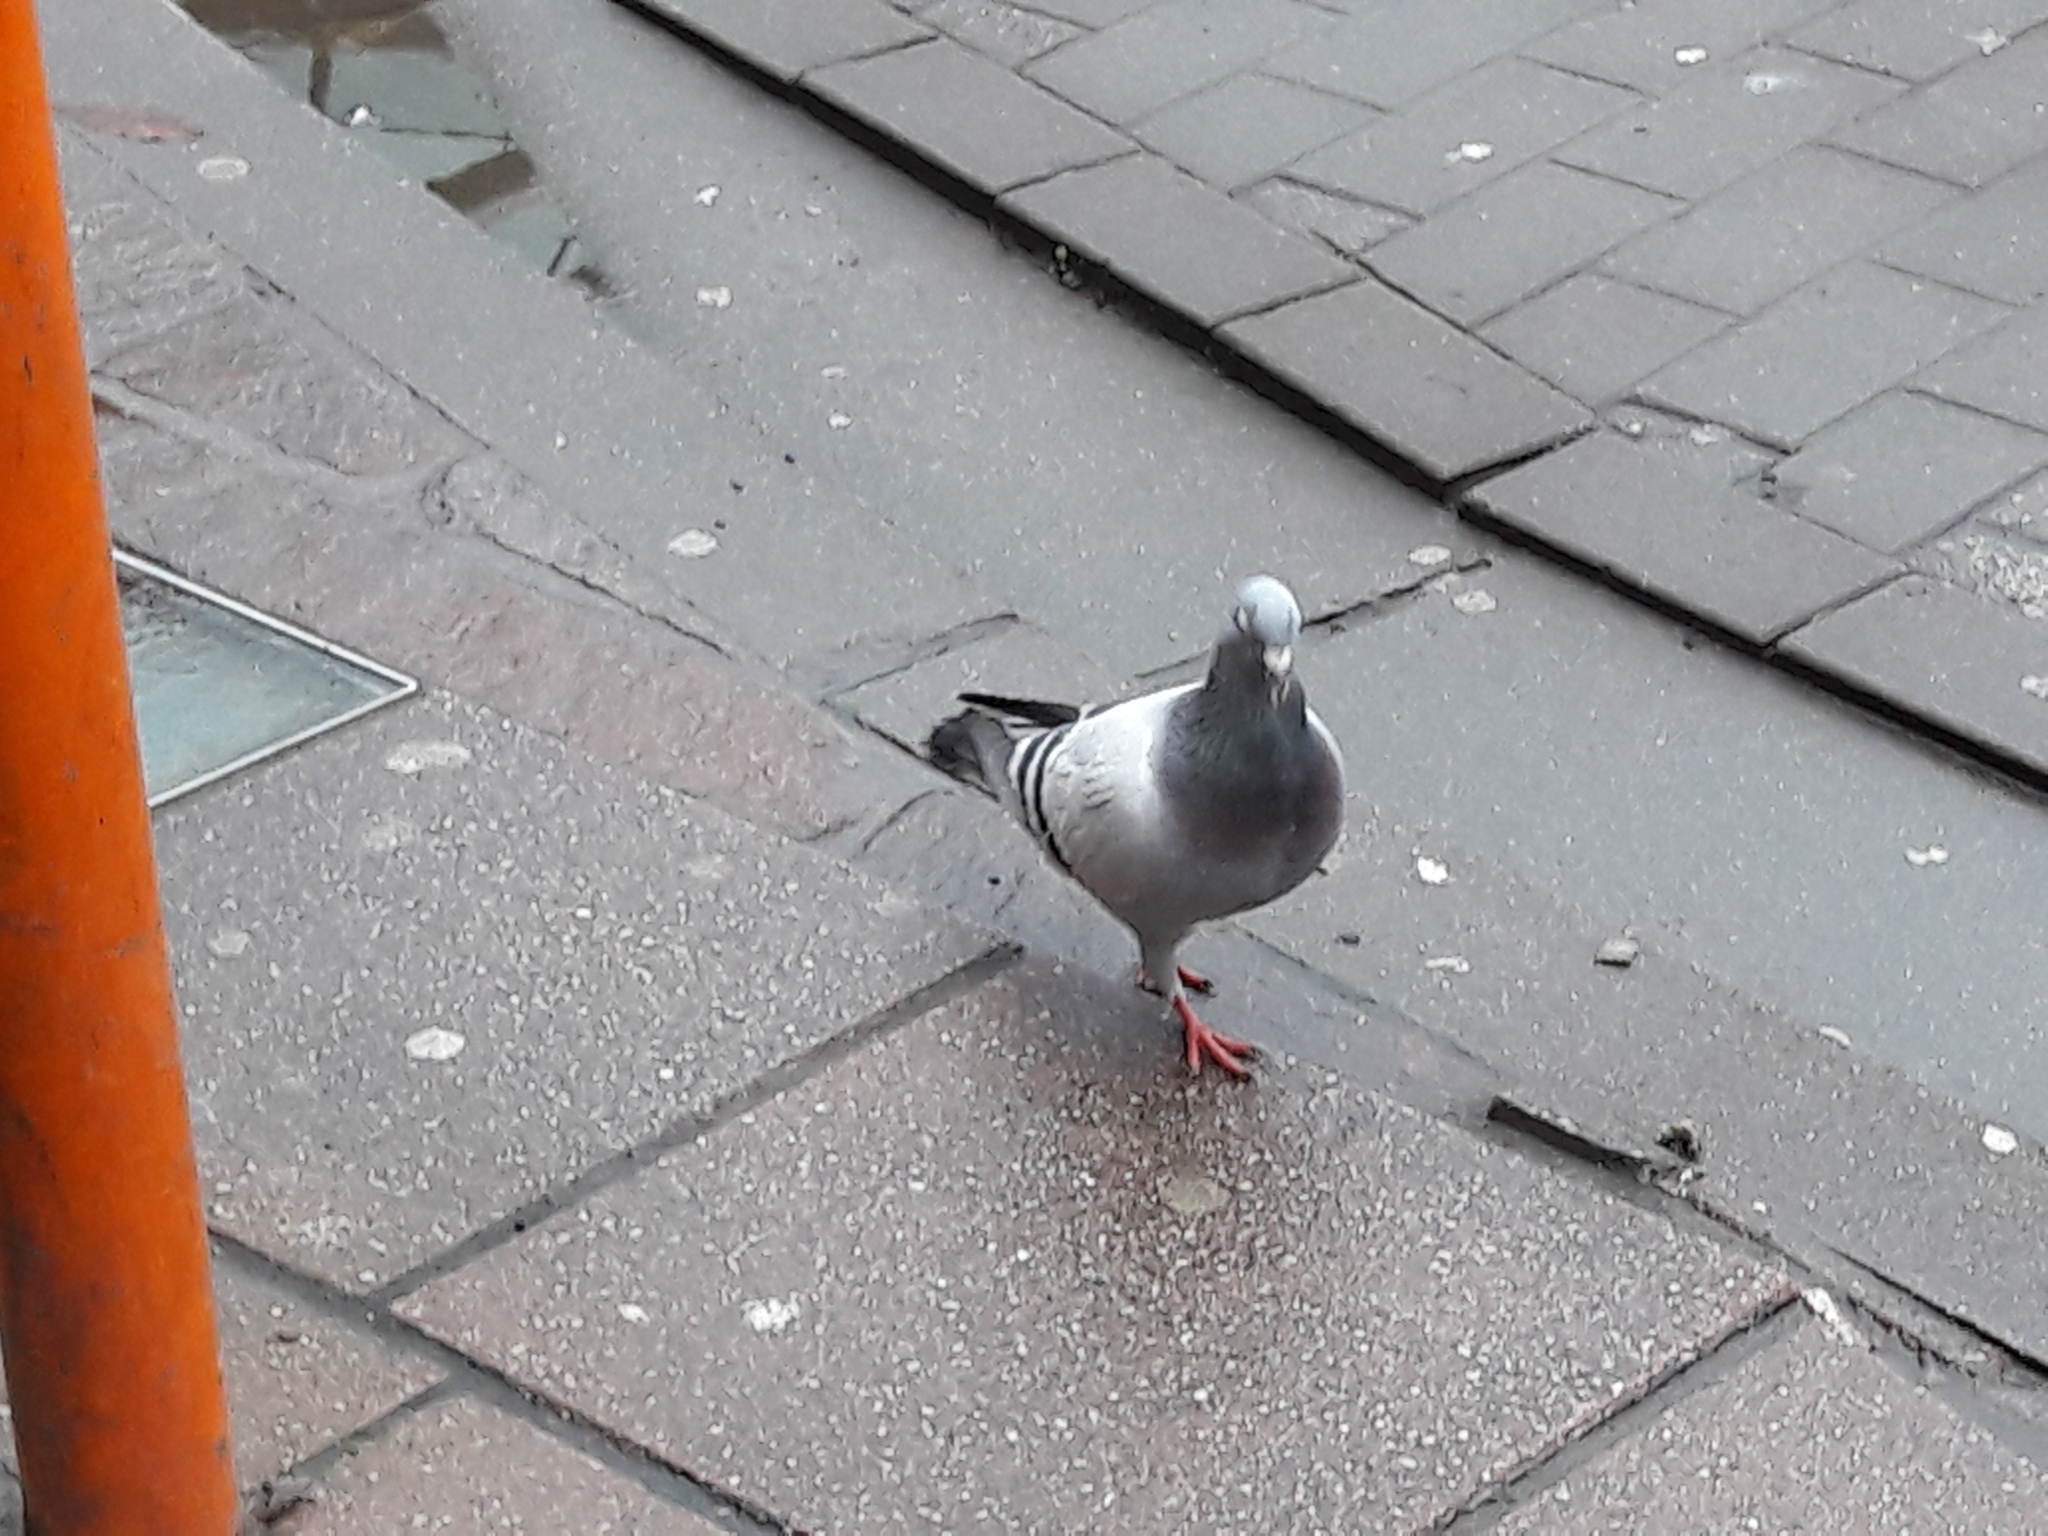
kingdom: Animalia
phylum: Chordata
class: Aves
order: Columbiformes
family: Columbidae
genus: Columba
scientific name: Columba livia
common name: Rock pigeon
